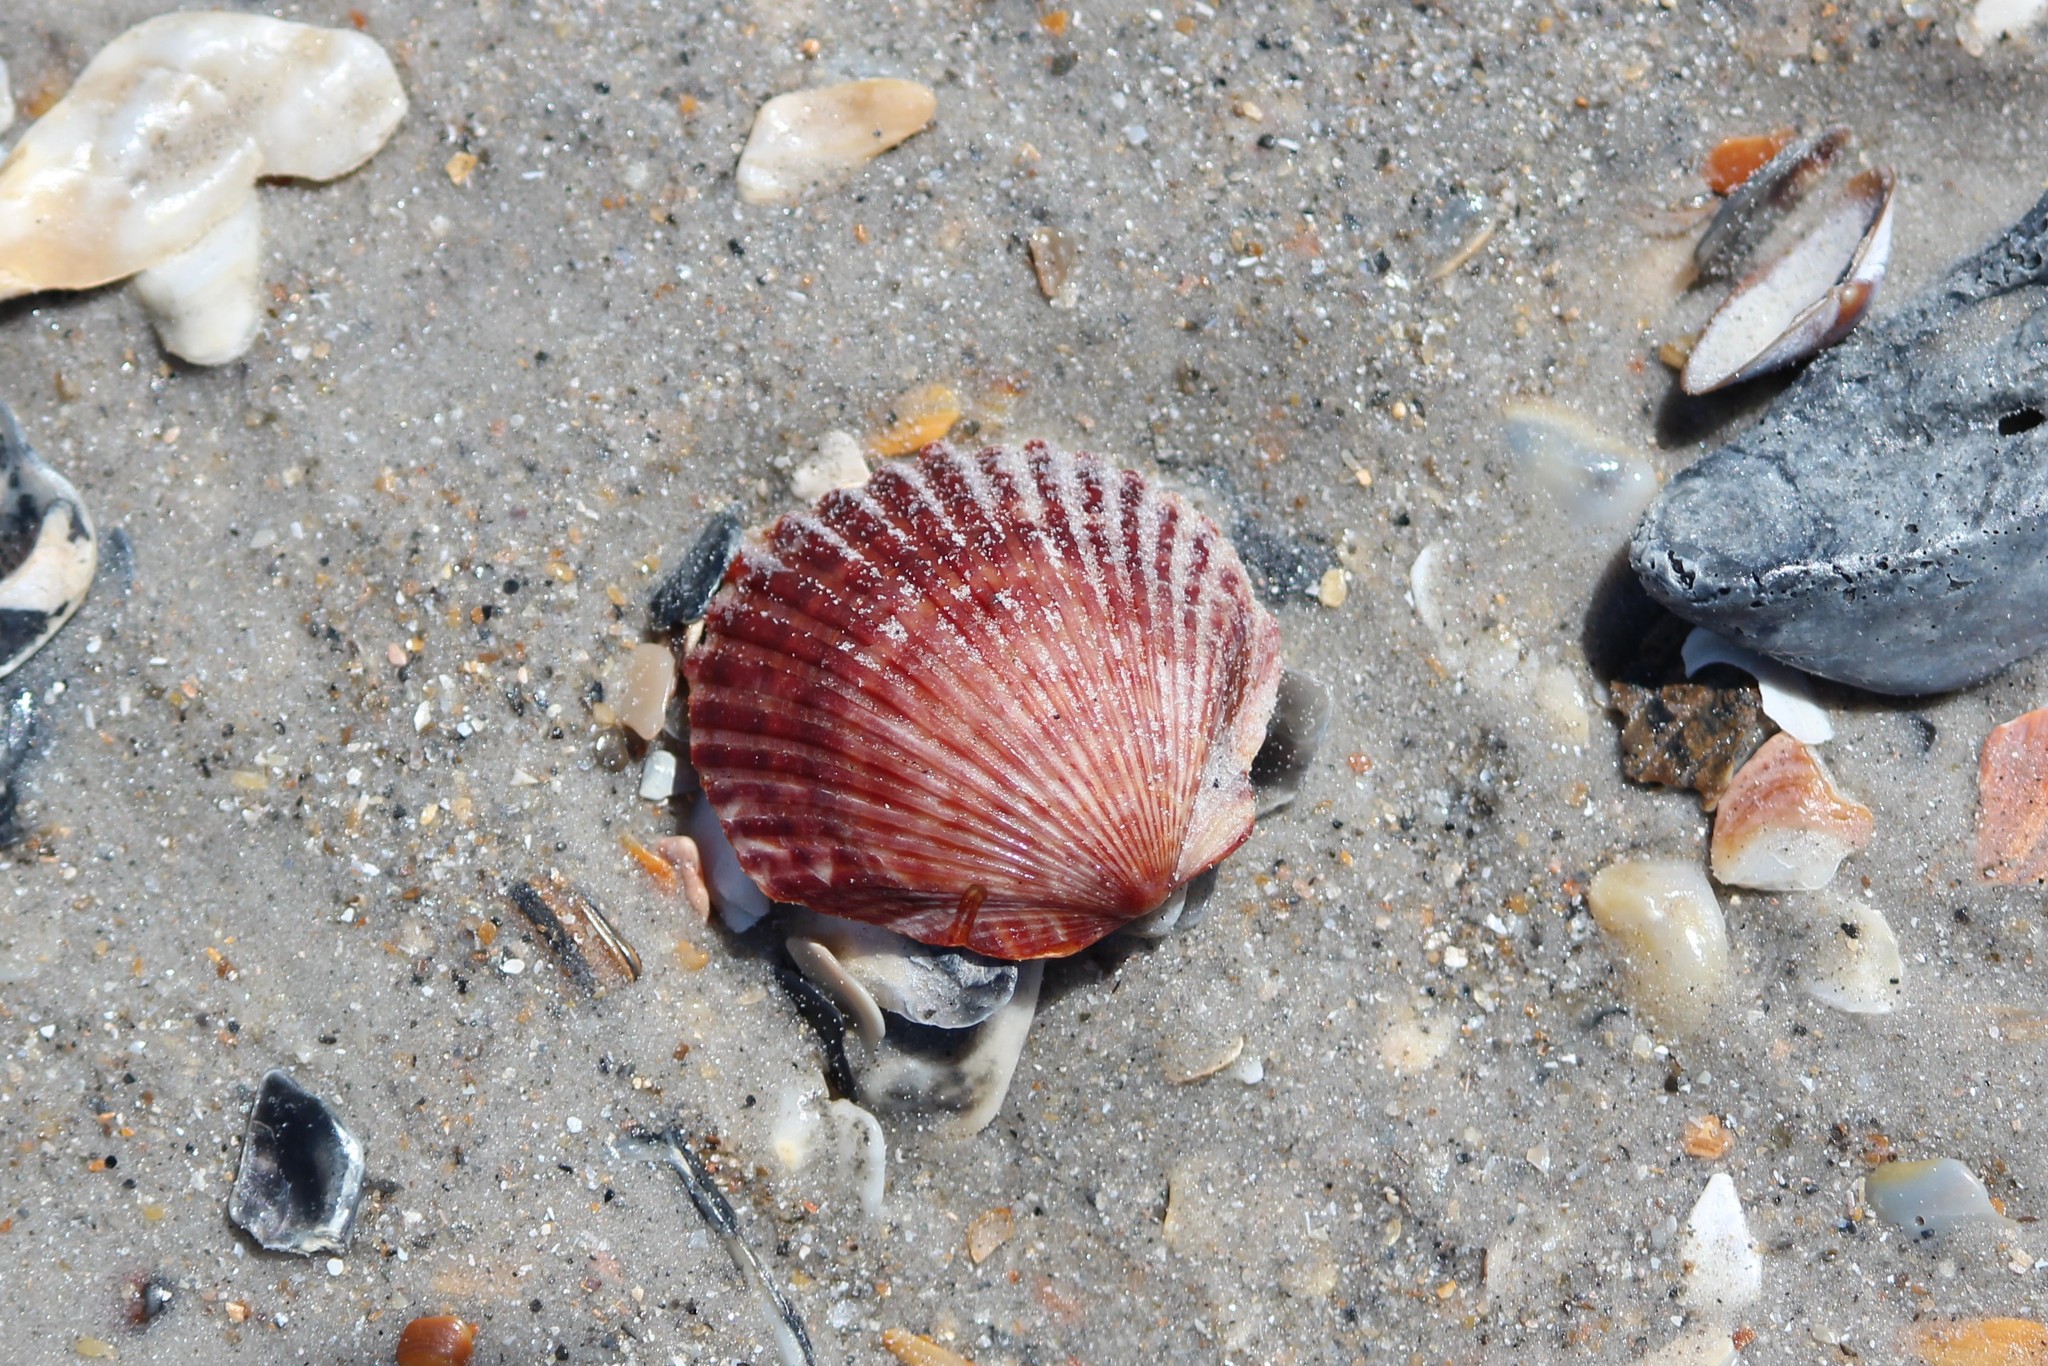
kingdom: Animalia
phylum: Mollusca
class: Bivalvia
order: Pectinida
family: Pectinidae
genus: Argopecten
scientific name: Argopecten irradians
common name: Atlantic bay scallop
